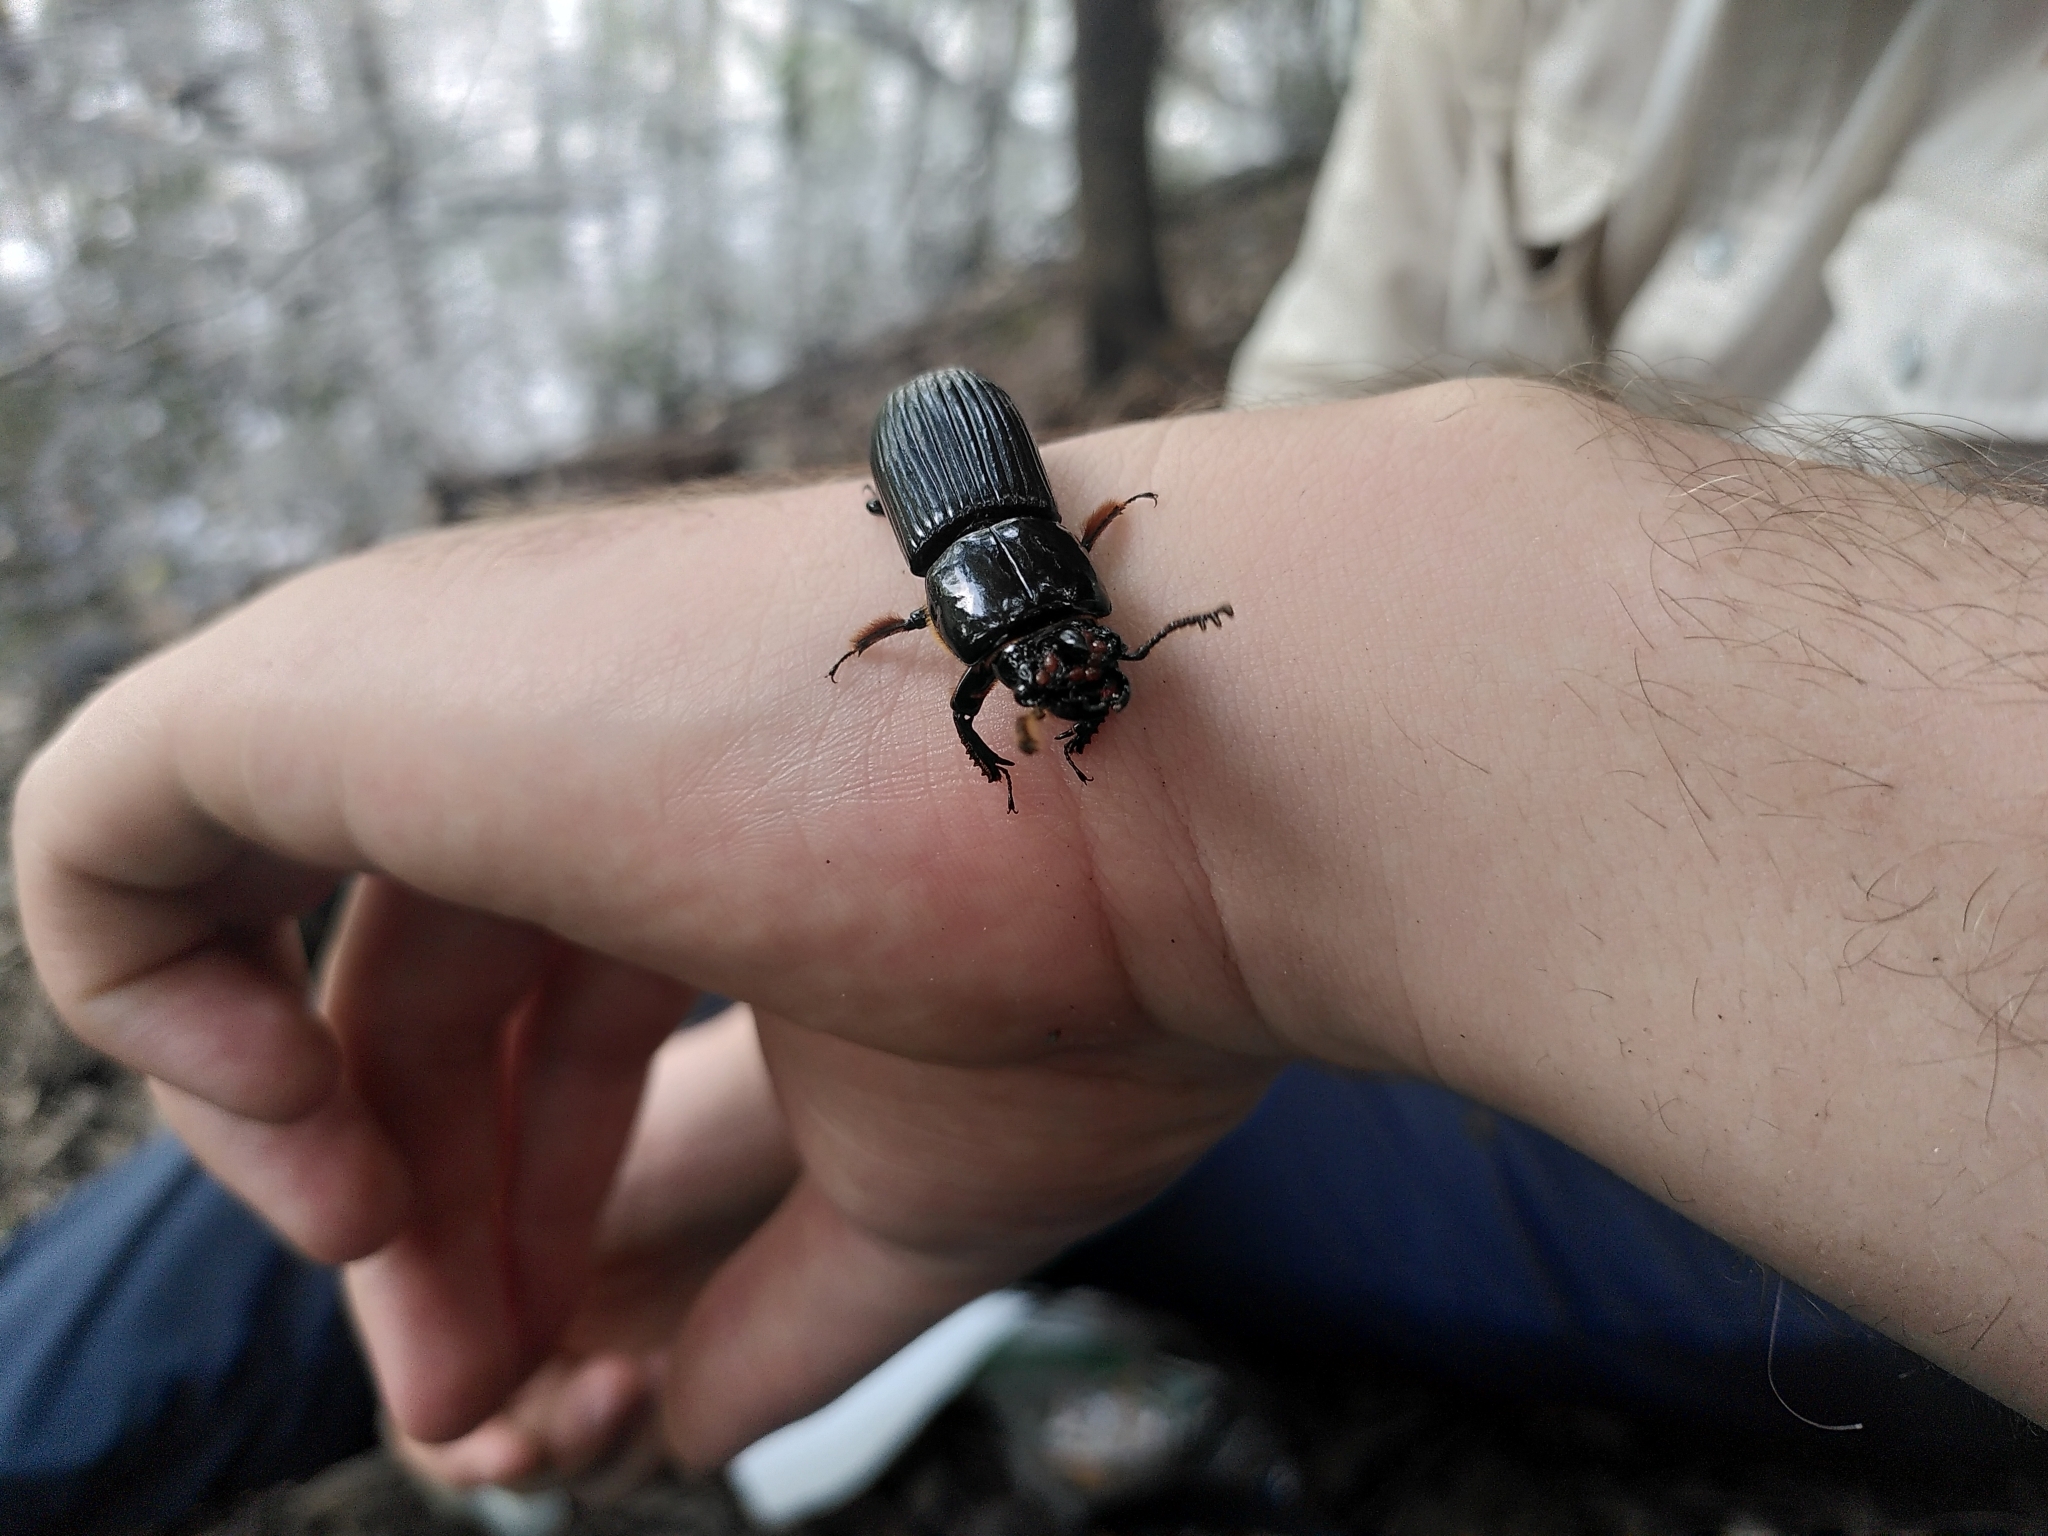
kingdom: Animalia
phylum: Arthropoda
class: Insecta
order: Coleoptera
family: Passalidae
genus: Odontotaenius
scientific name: Odontotaenius disjunctus
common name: Patent leather beetle
